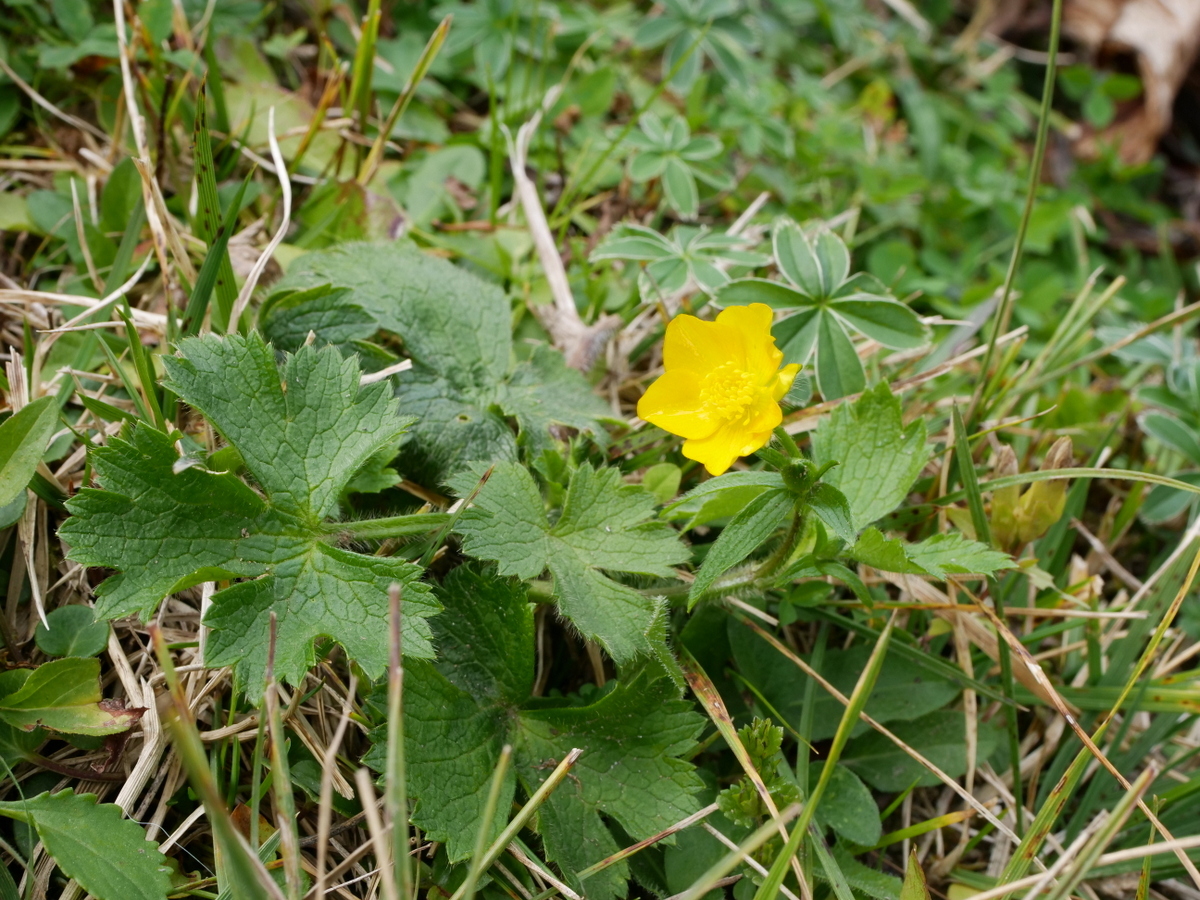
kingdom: Plantae
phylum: Tracheophyta
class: Magnoliopsida
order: Ranunculales
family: Ranunculaceae
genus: Ranunculus
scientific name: Ranunculus lanuginosus
